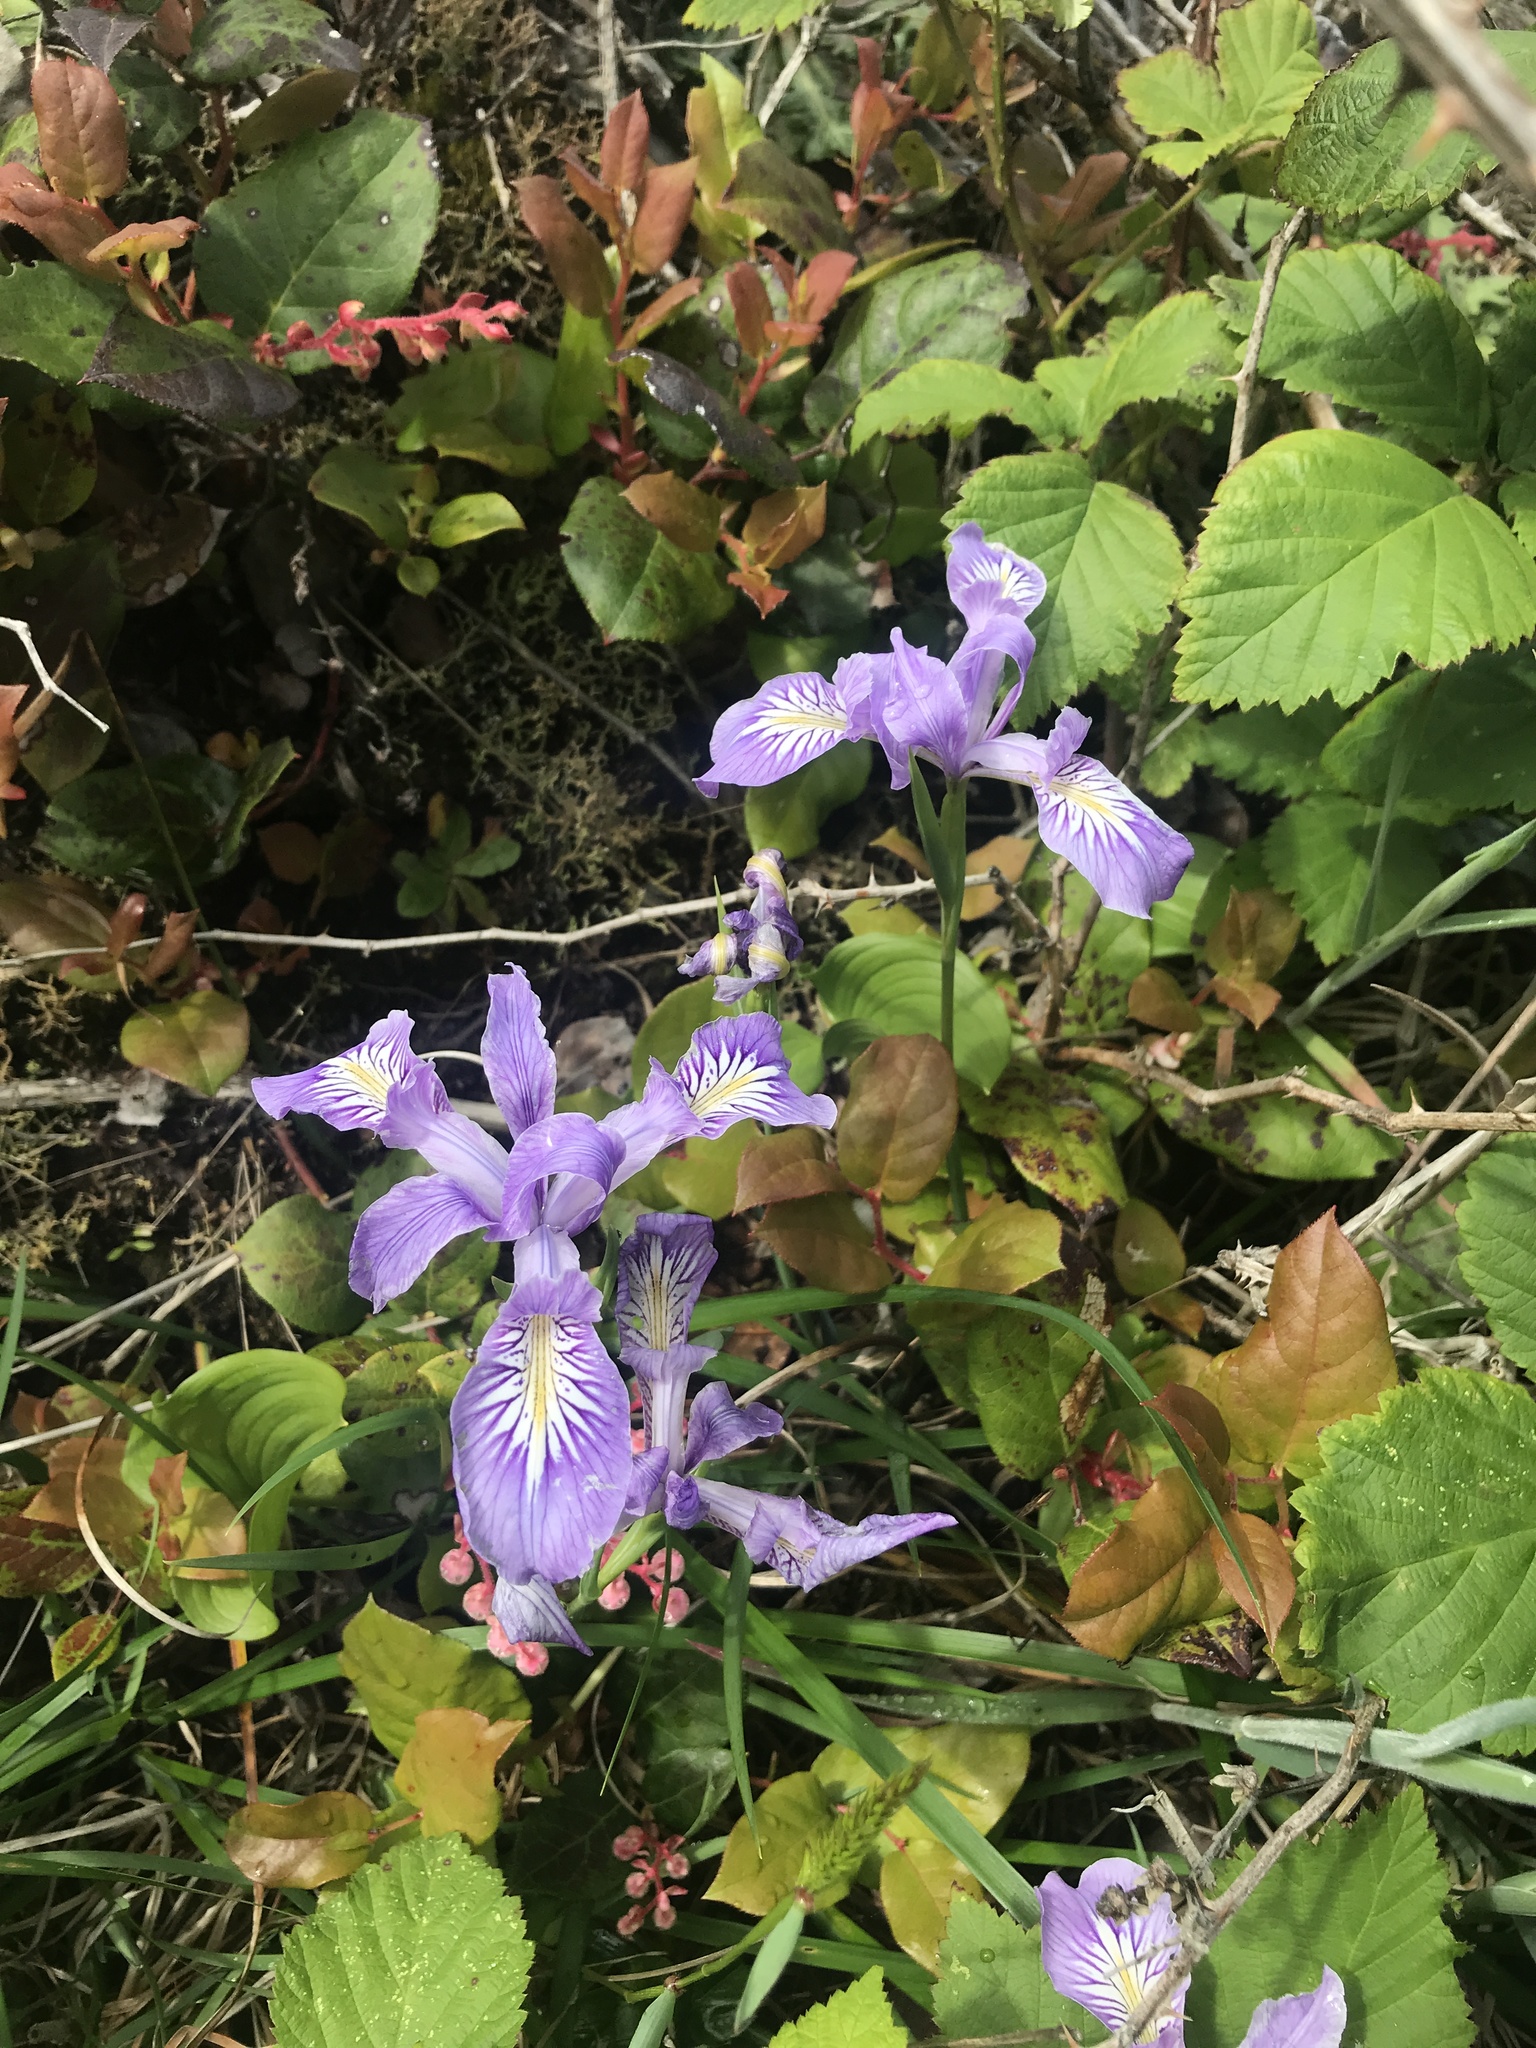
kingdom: Plantae
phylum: Tracheophyta
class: Liliopsida
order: Asparagales
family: Iridaceae
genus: Iris
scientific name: Iris tenax
